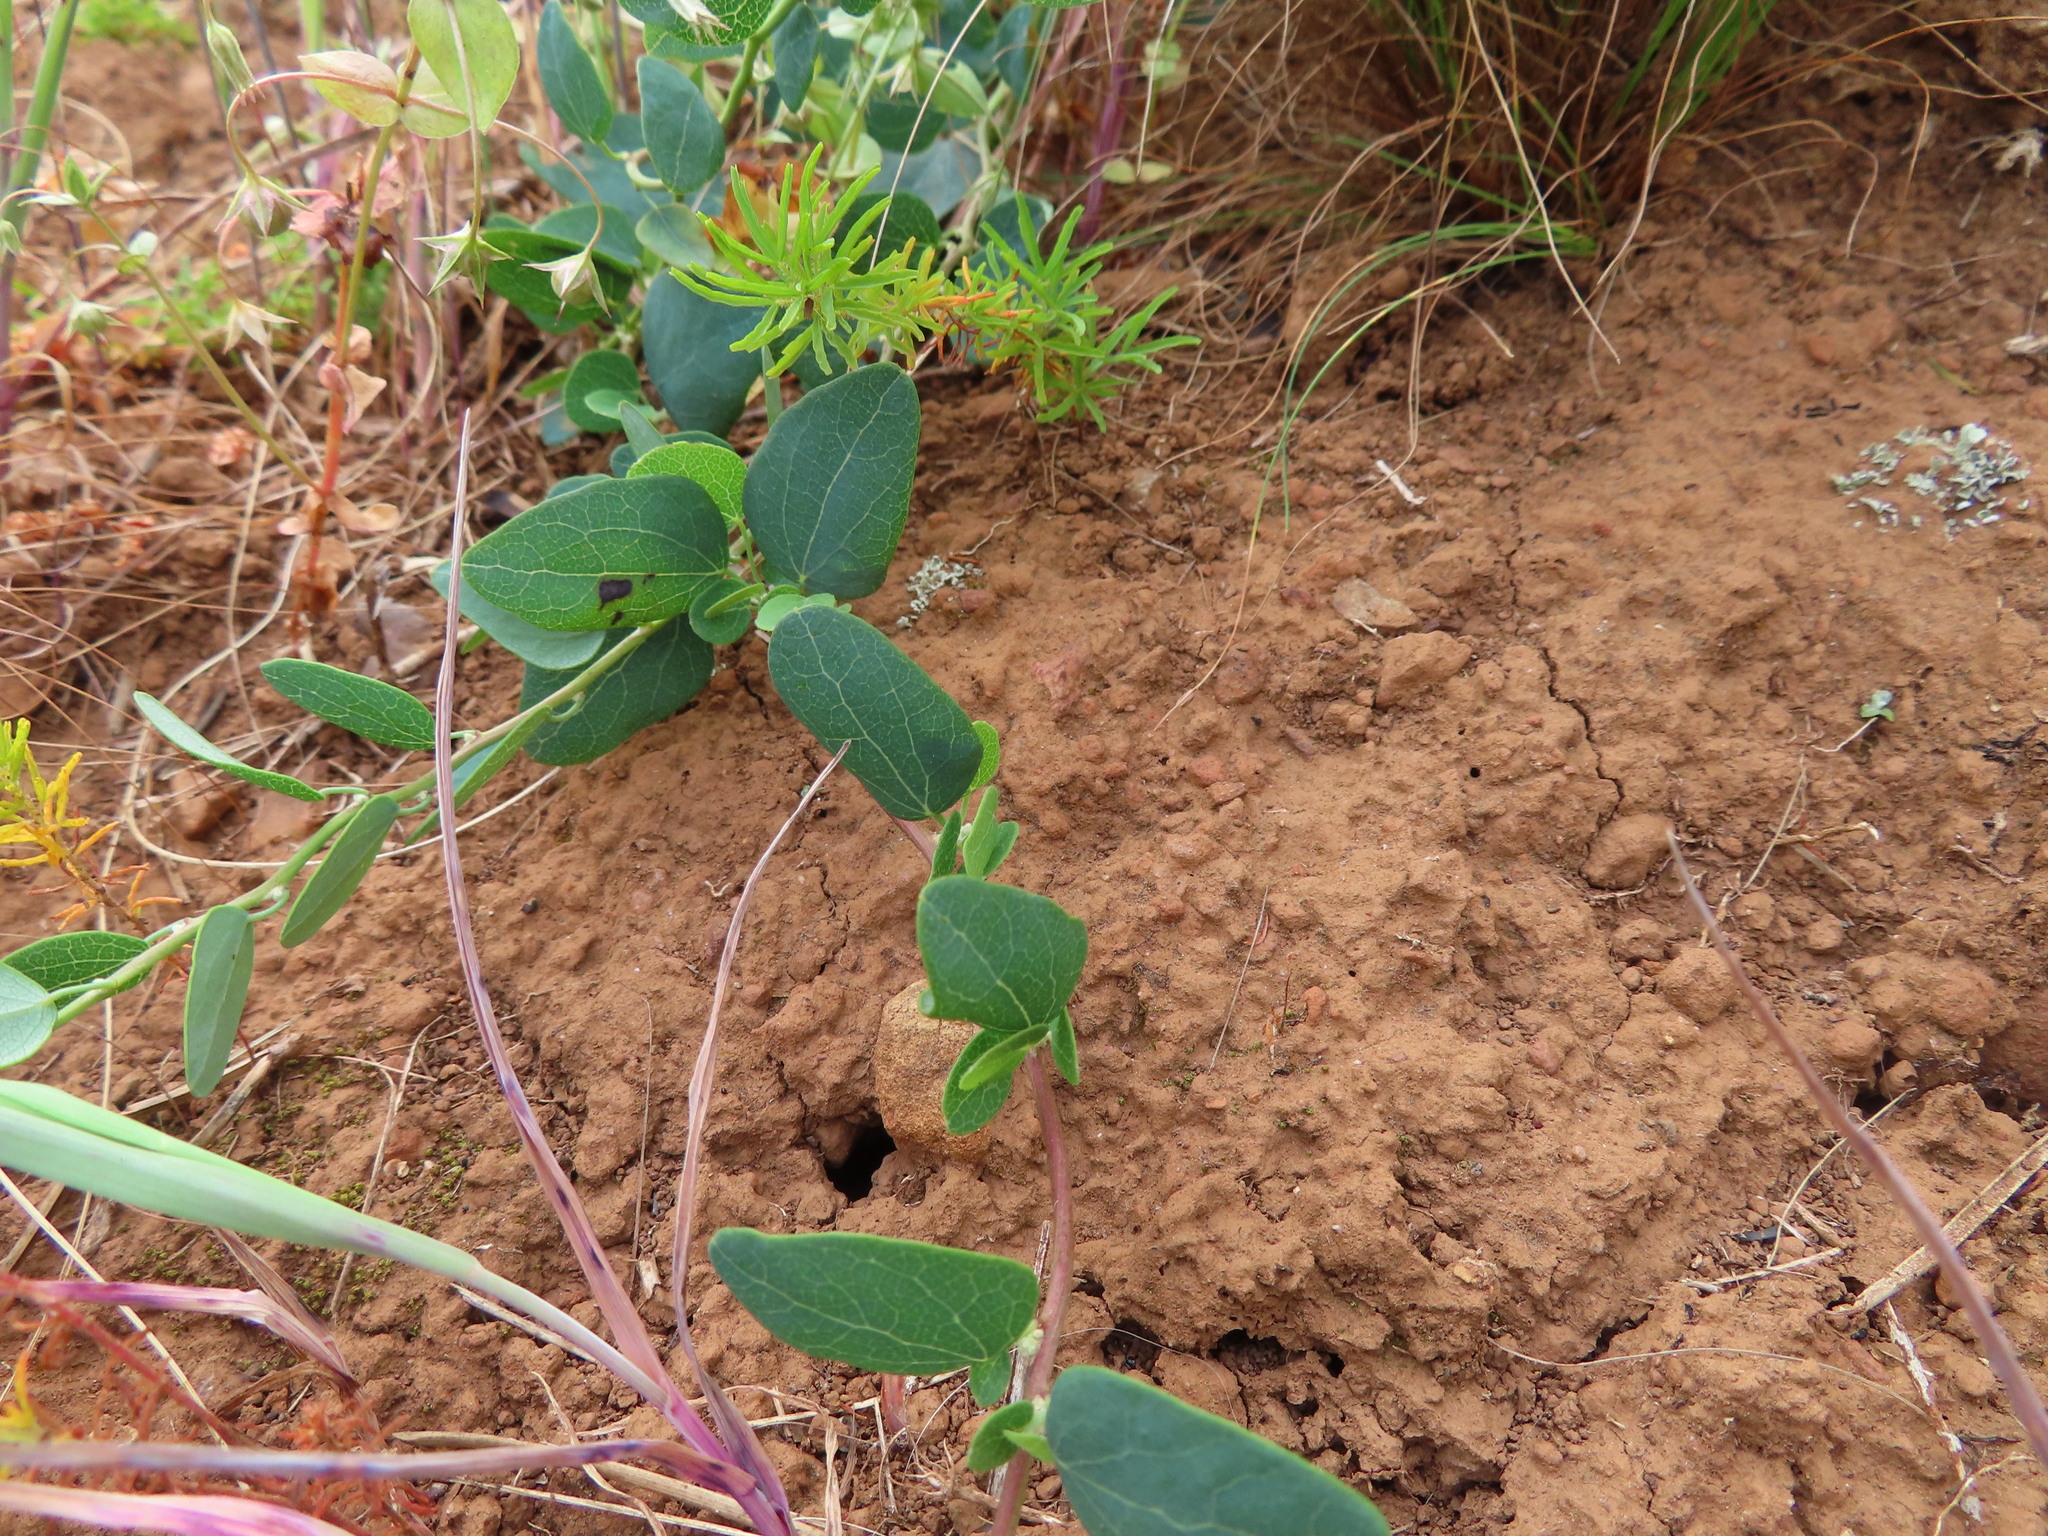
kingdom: Plantae
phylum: Tracheophyta
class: Magnoliopsida
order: Ranunculales
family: Menispermaceae
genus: Cissampelos
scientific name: Cissampelos capensis
